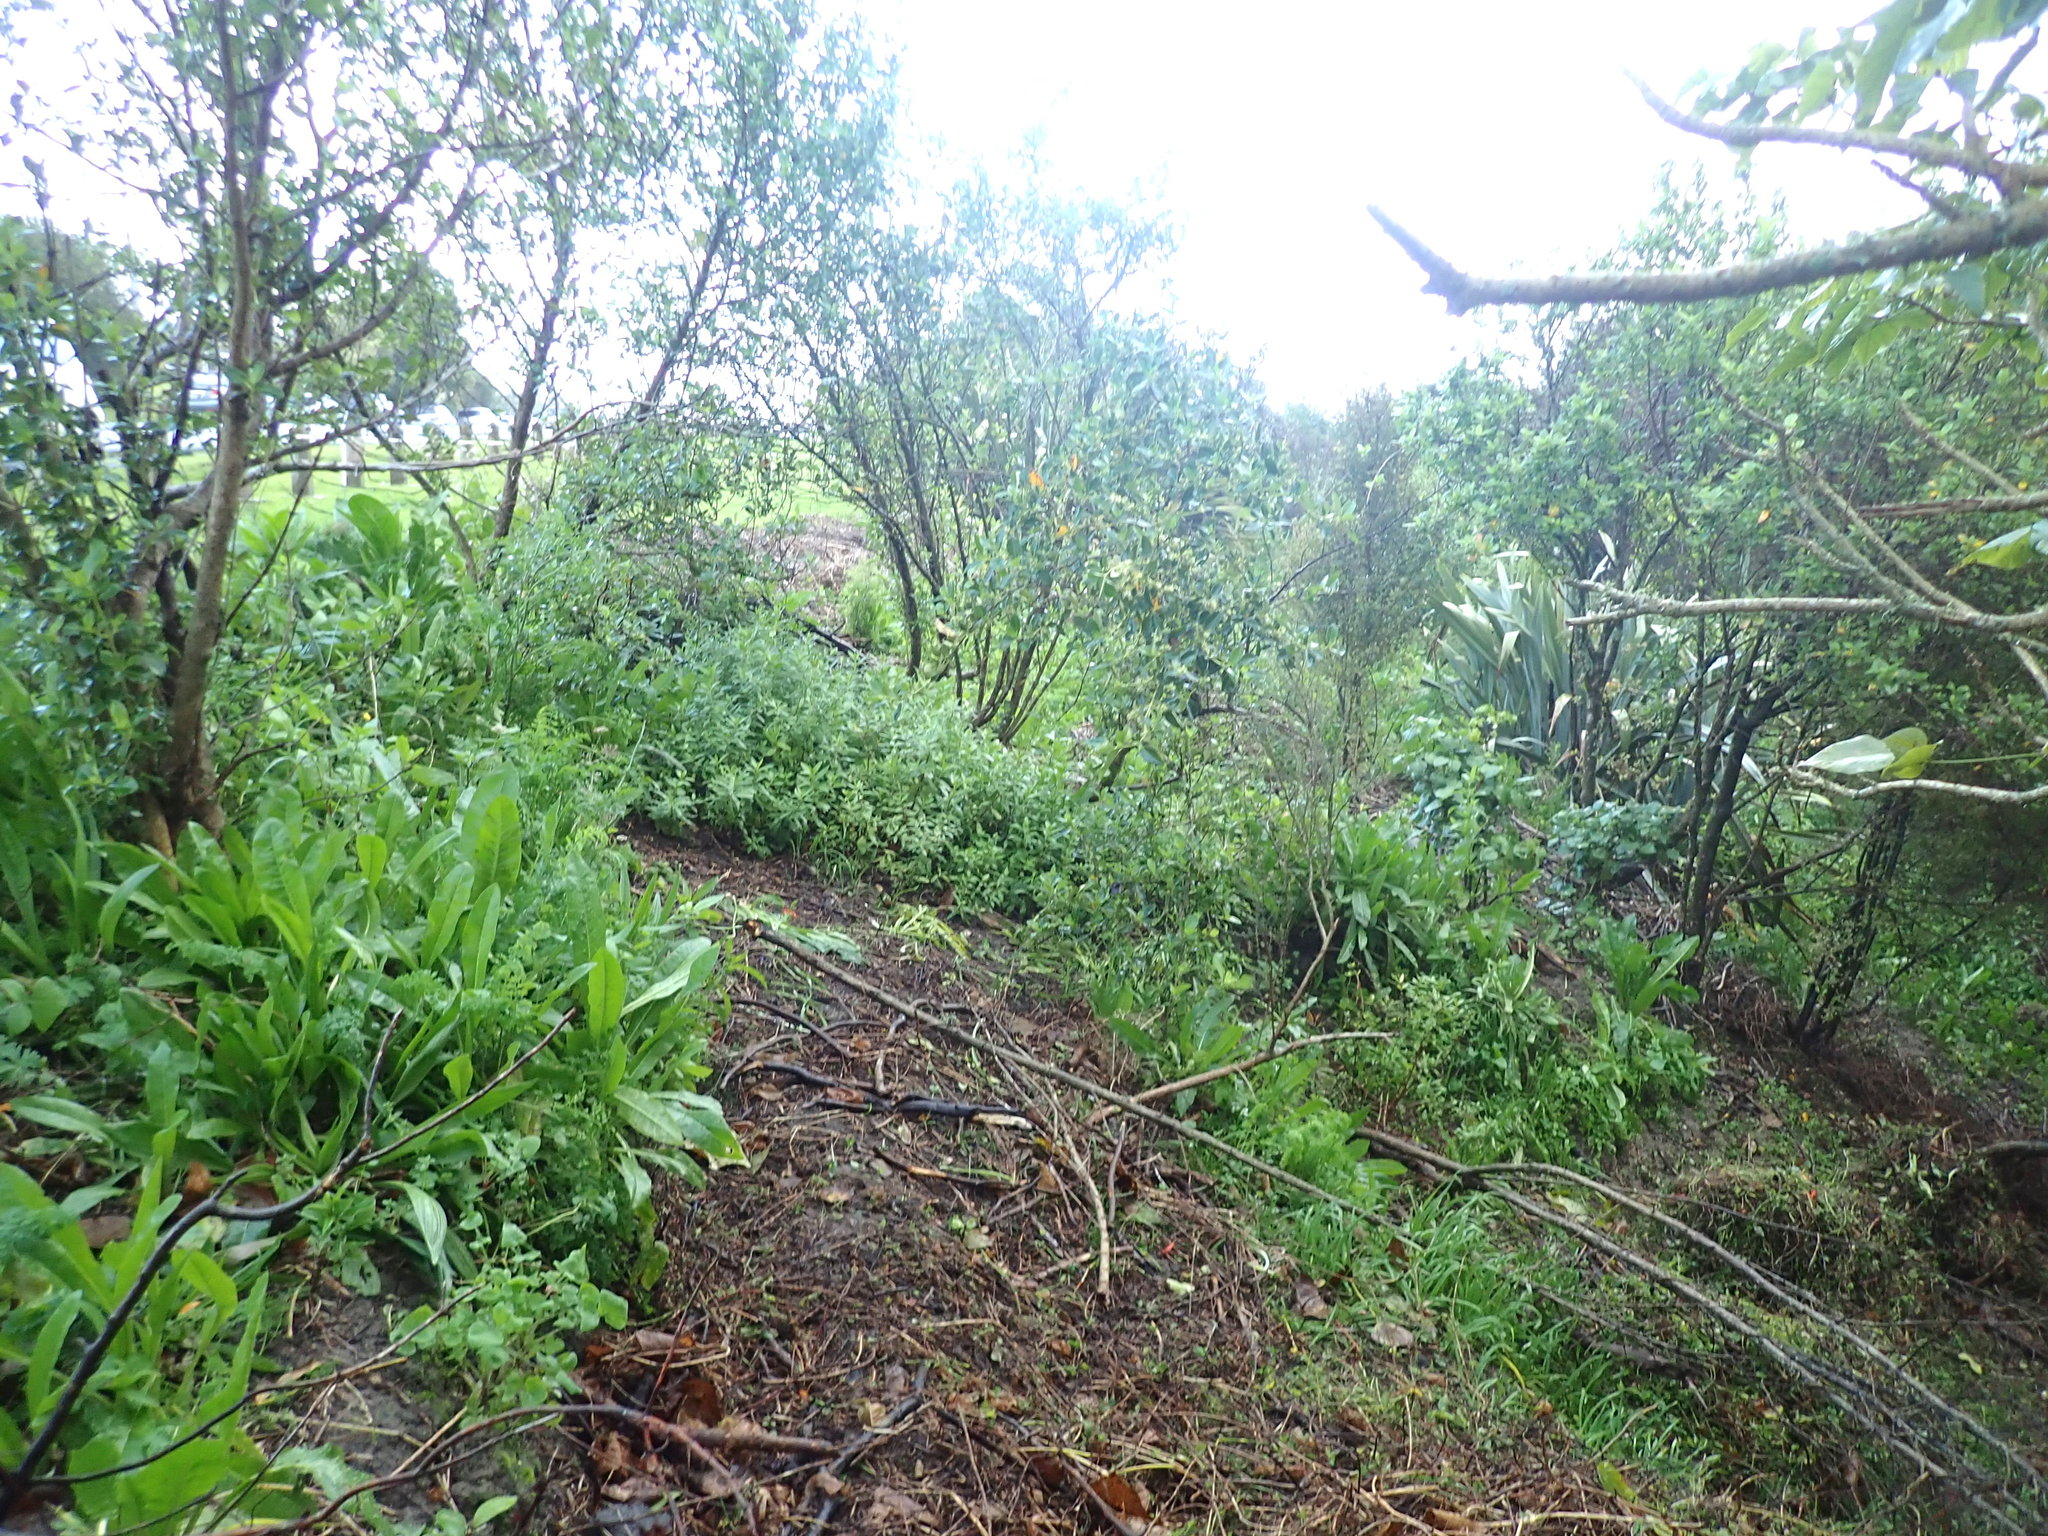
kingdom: Plantae
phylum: Tracheophyta
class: Magnoliopsida
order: Asterales
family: Asteraceae
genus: Helminthotheca
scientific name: Helminthotheca echioides
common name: Ox-tongue
